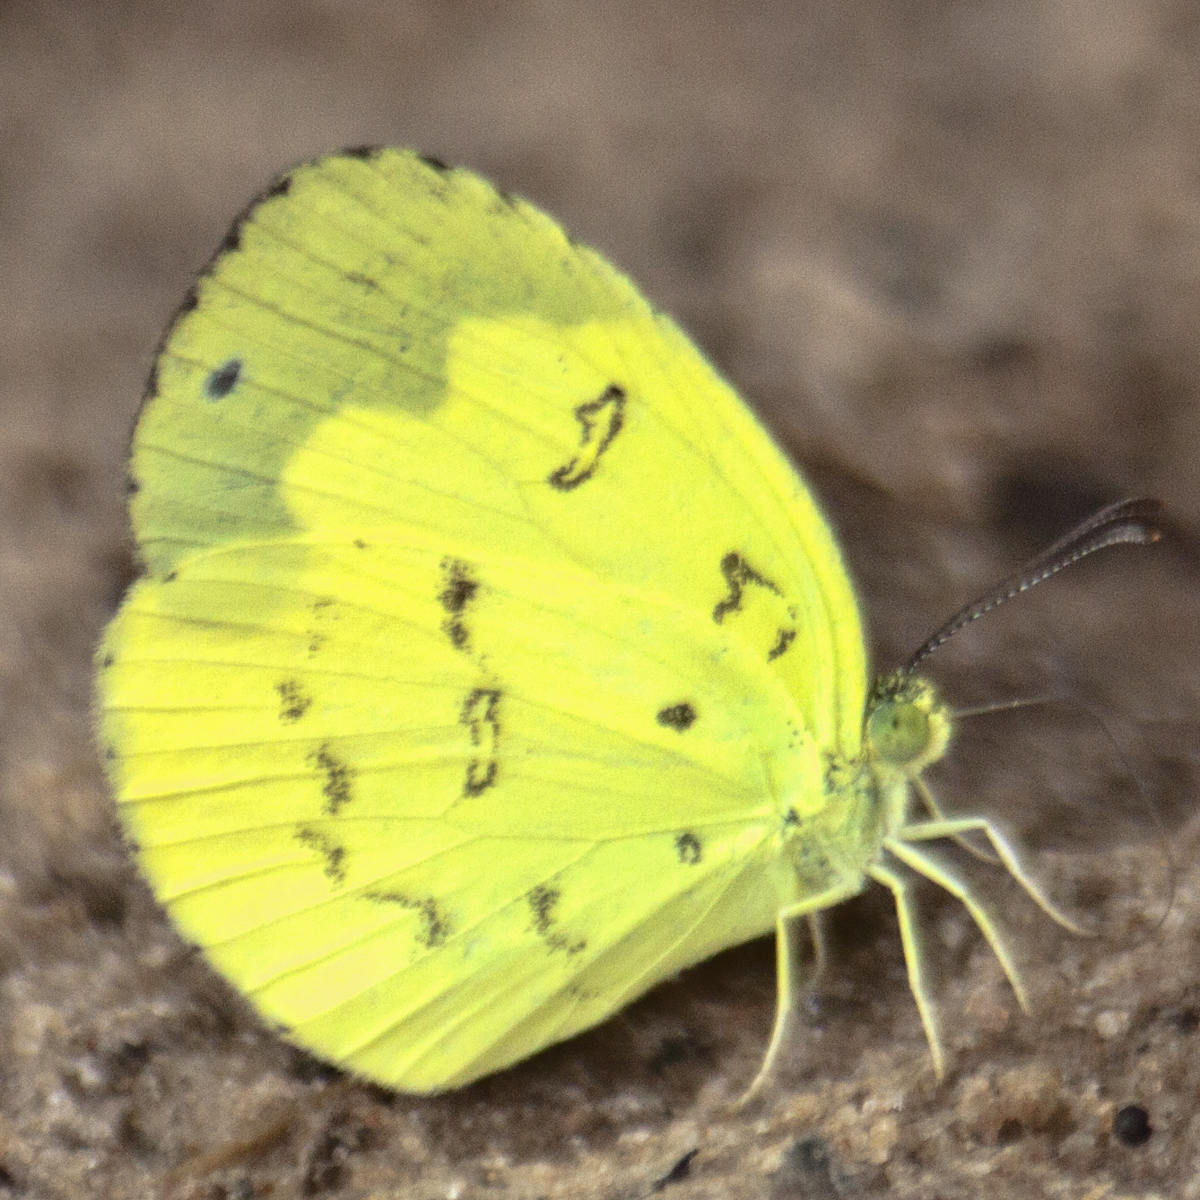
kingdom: Animalia
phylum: Arthropoda
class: Insecta
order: Lepidoptera
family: Pieridae
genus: Eurema
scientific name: Eurema ada
